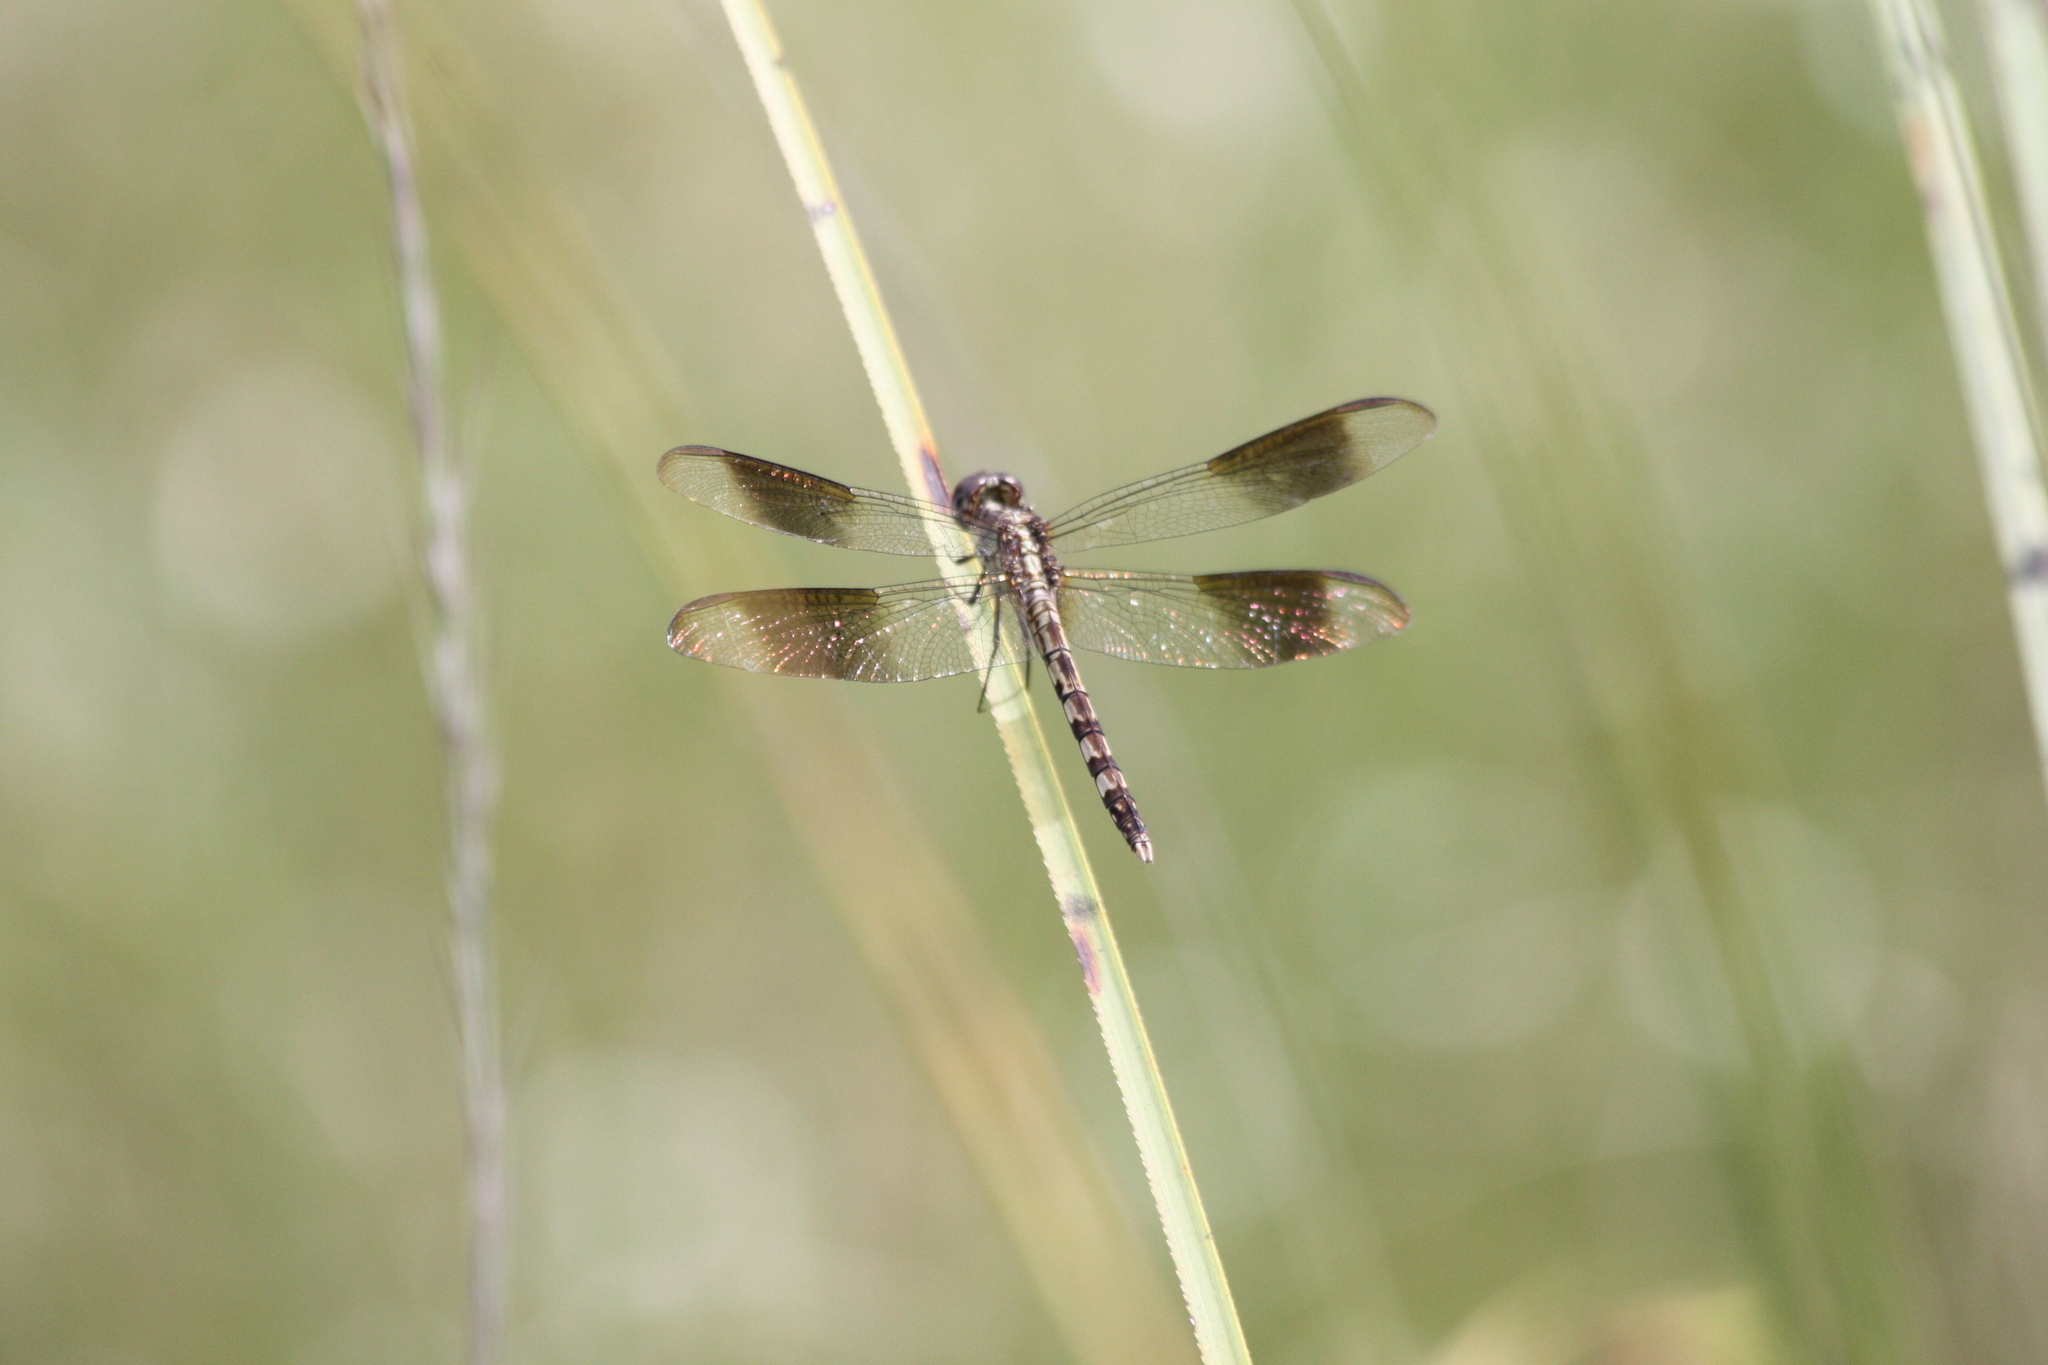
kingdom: Animalia
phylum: Arthropoda
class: Insecta
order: Odonata
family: Libellulidae
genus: Erythrodiplax
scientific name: Erythrodiplax umbrata
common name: Band-winged dragonlet
